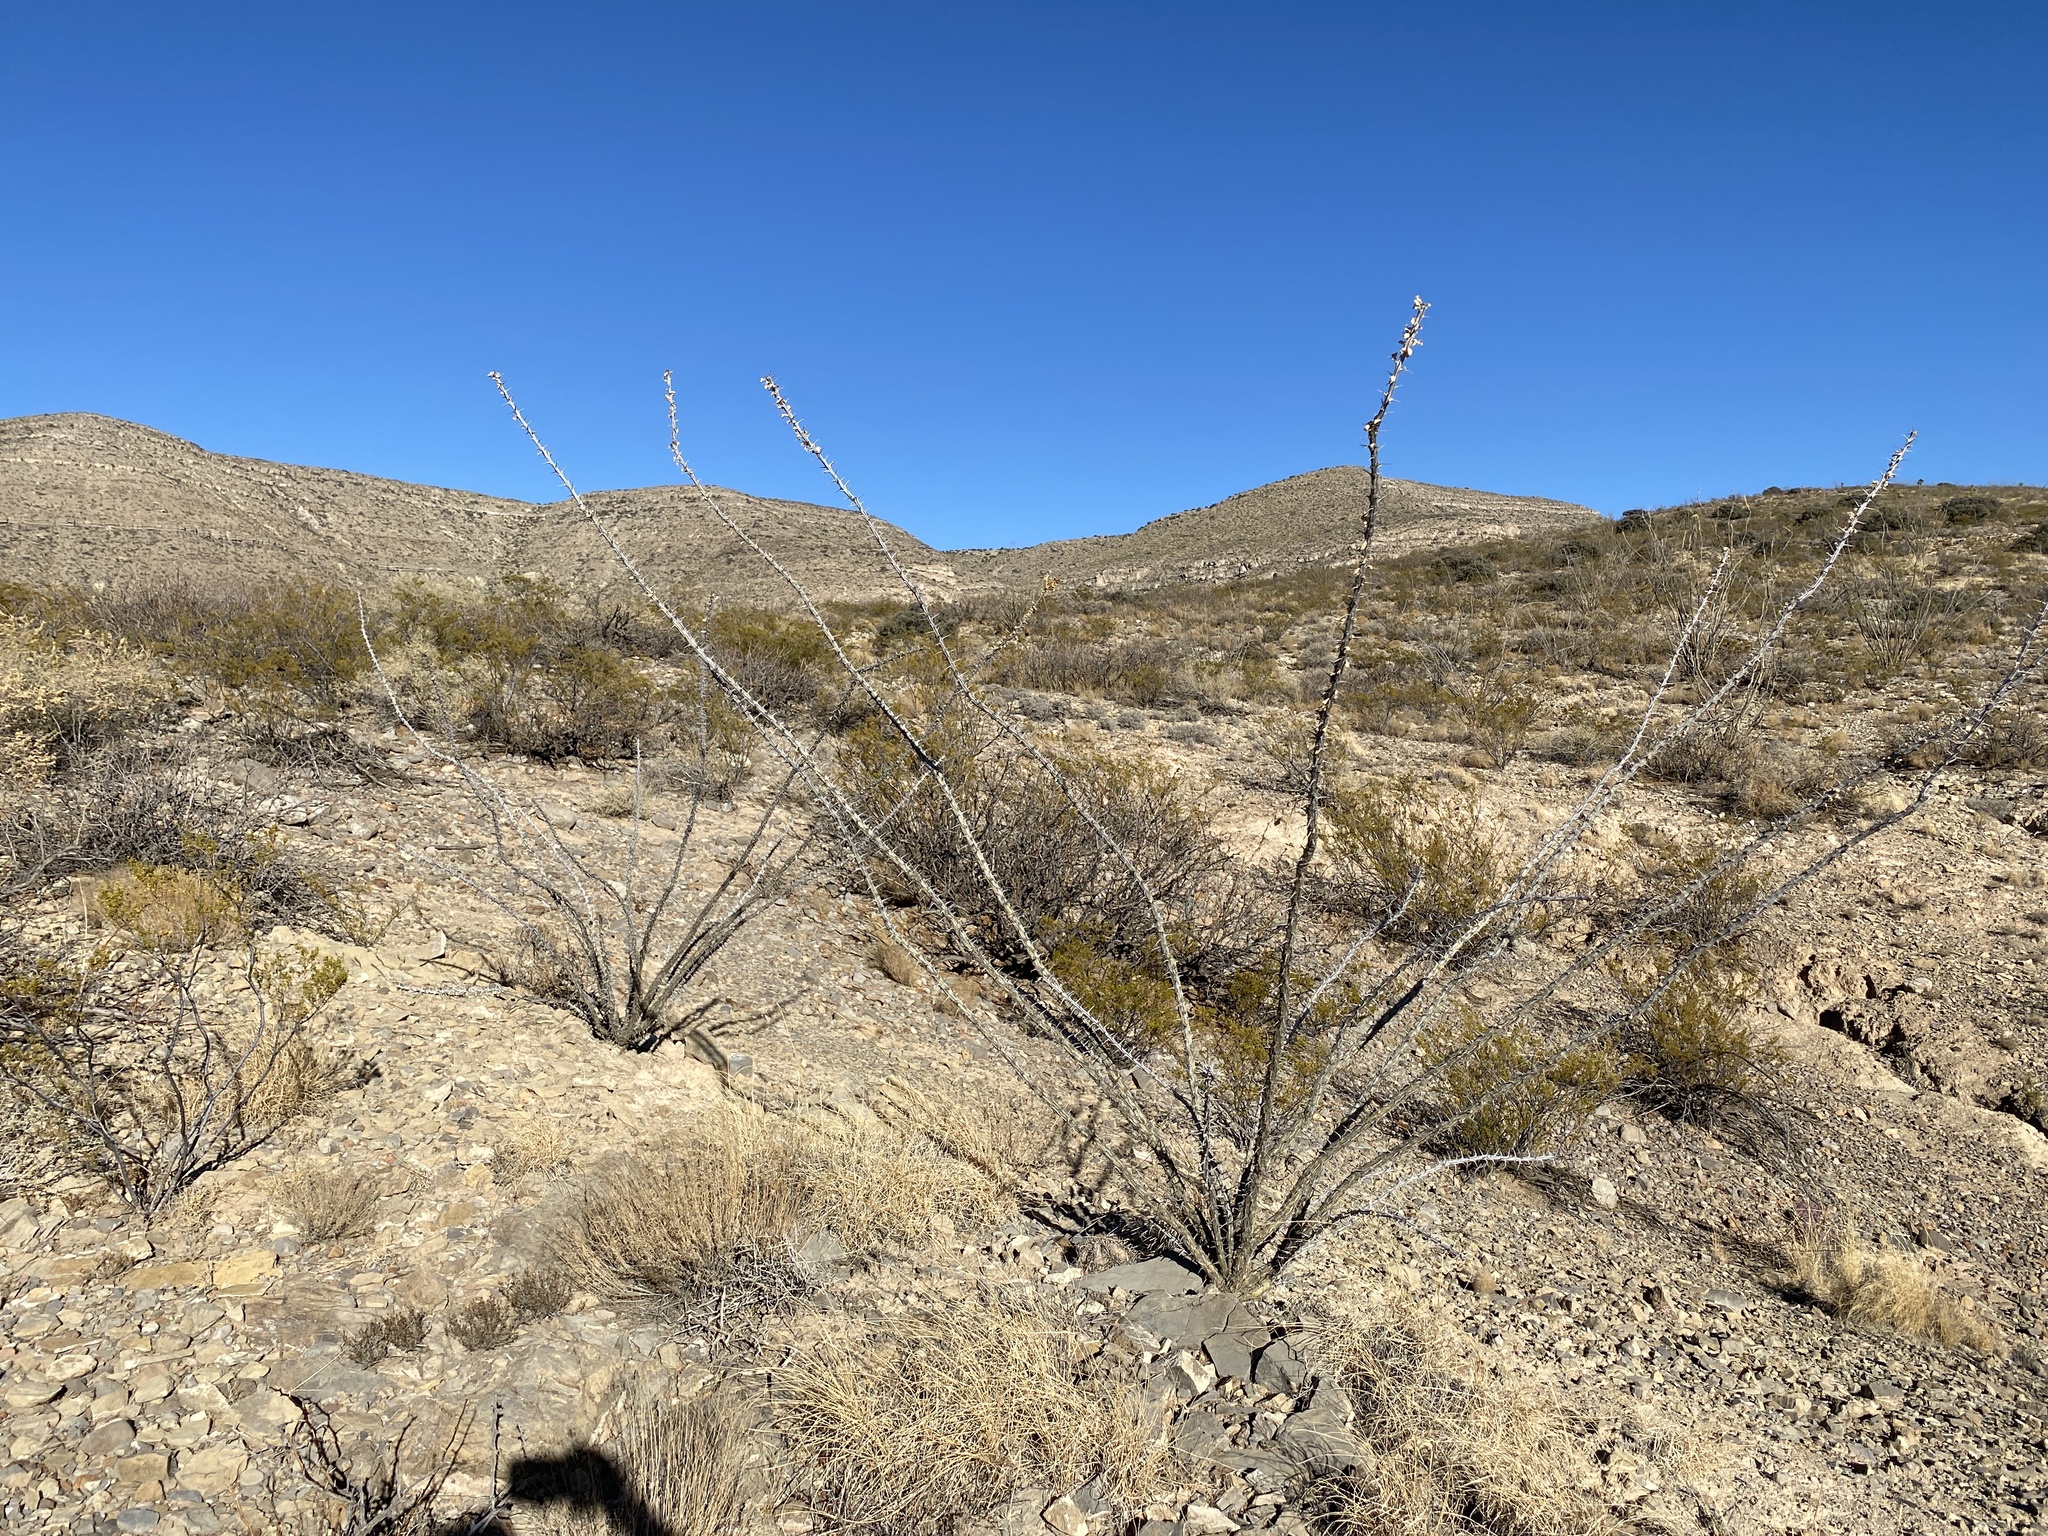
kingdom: Plantae
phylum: Tracheophyta
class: Magnoliopsida
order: Ericales
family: Fouquieriaceae
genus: Fouquieria
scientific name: Fouquieria splendens
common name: Vine-cactus
